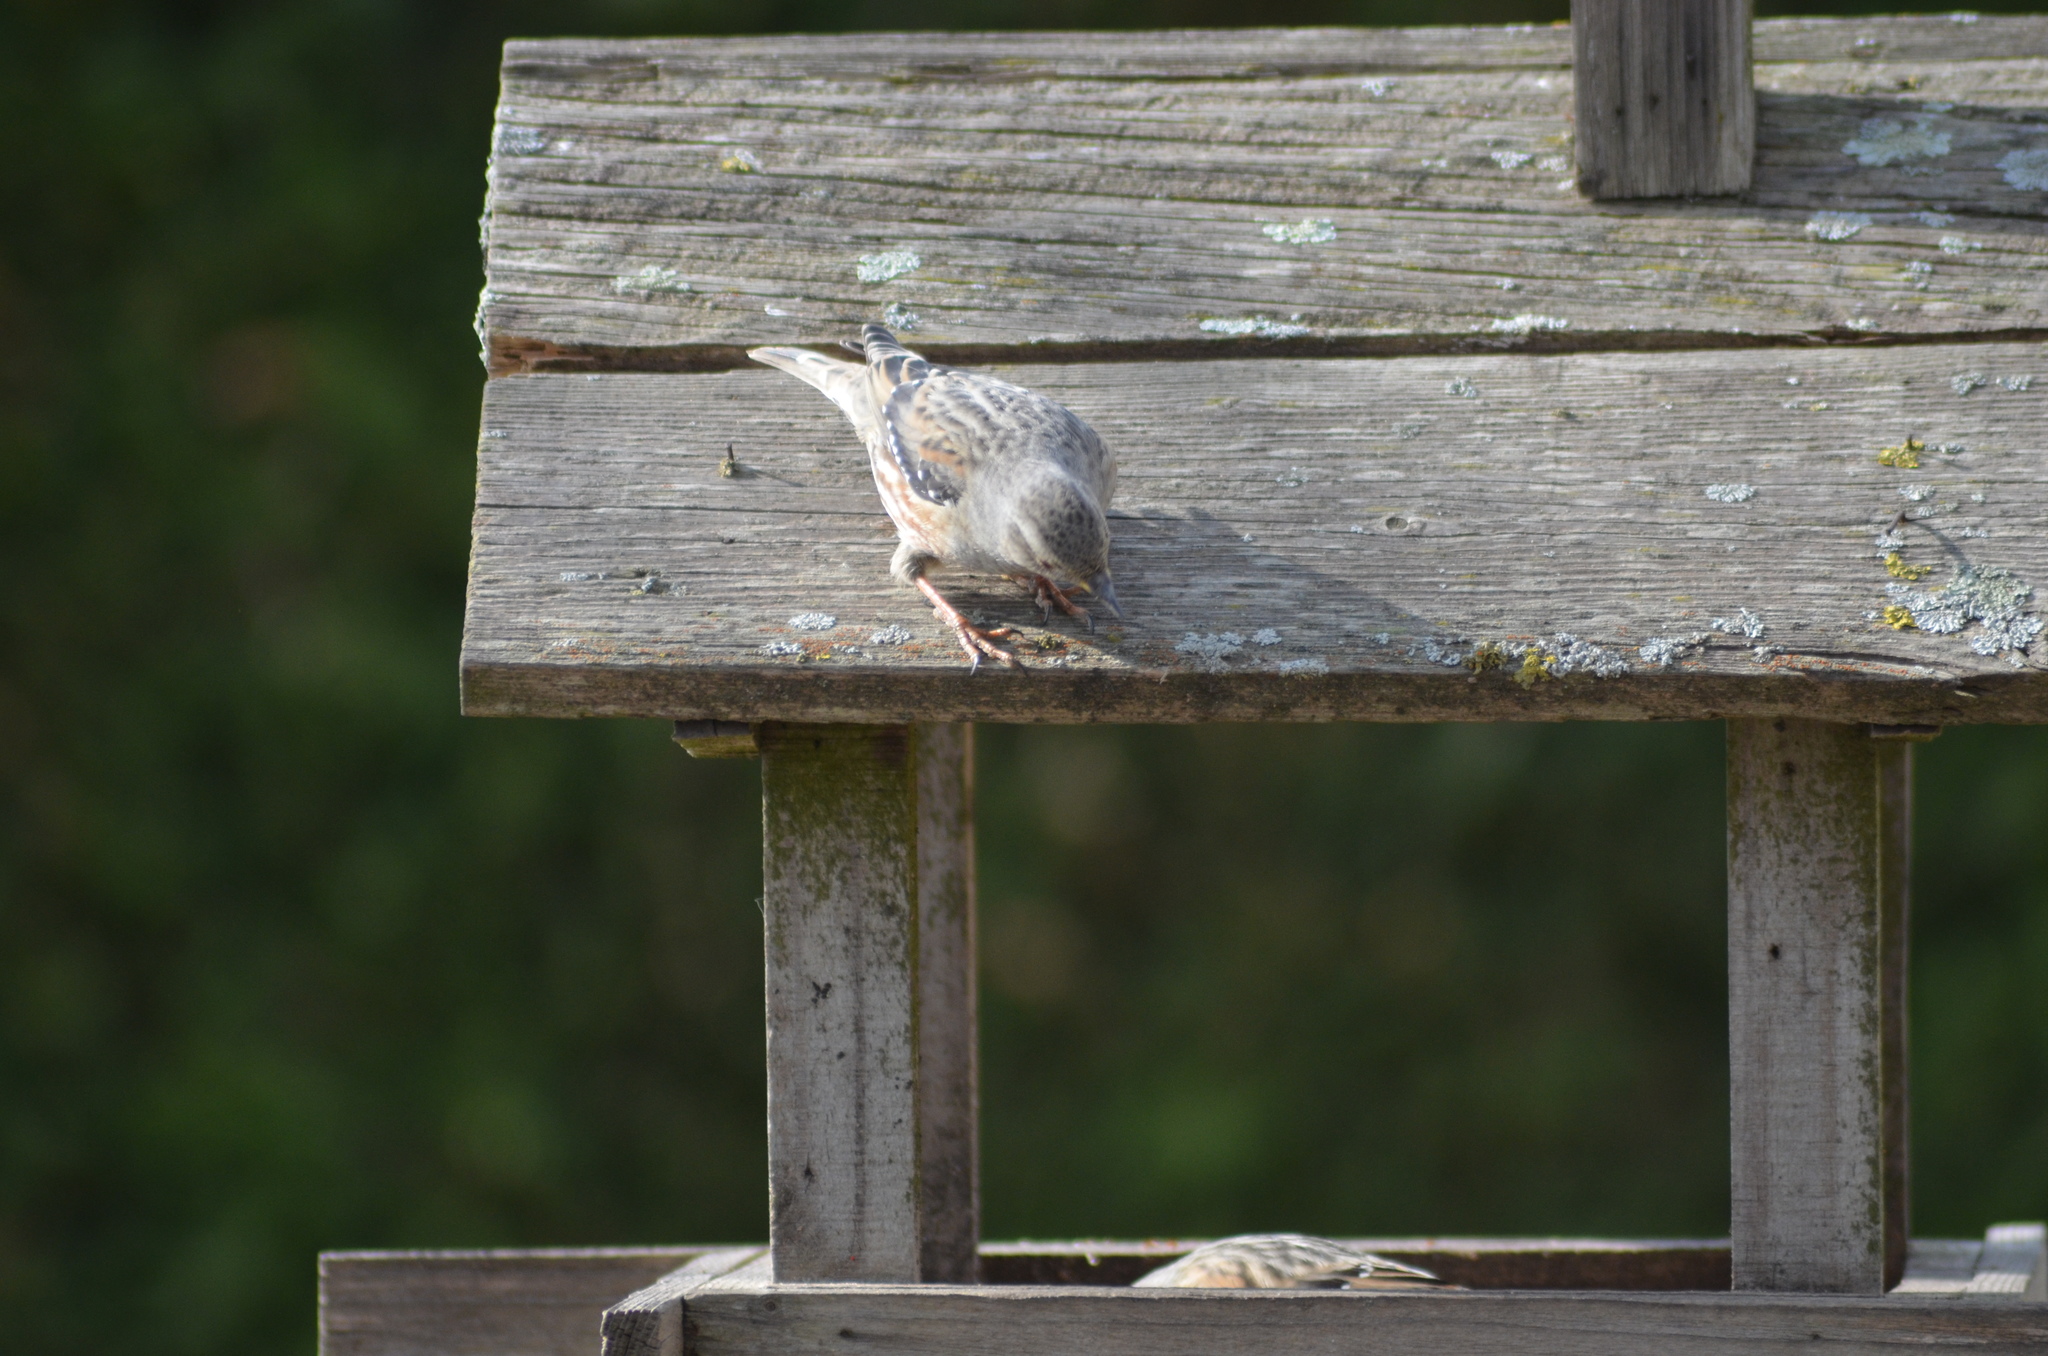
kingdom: Animalia
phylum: Chordata
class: Aves
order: Passeriformes
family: Prunellidae
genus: Prunella
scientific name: Prunella collaris
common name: Alpine accentor
